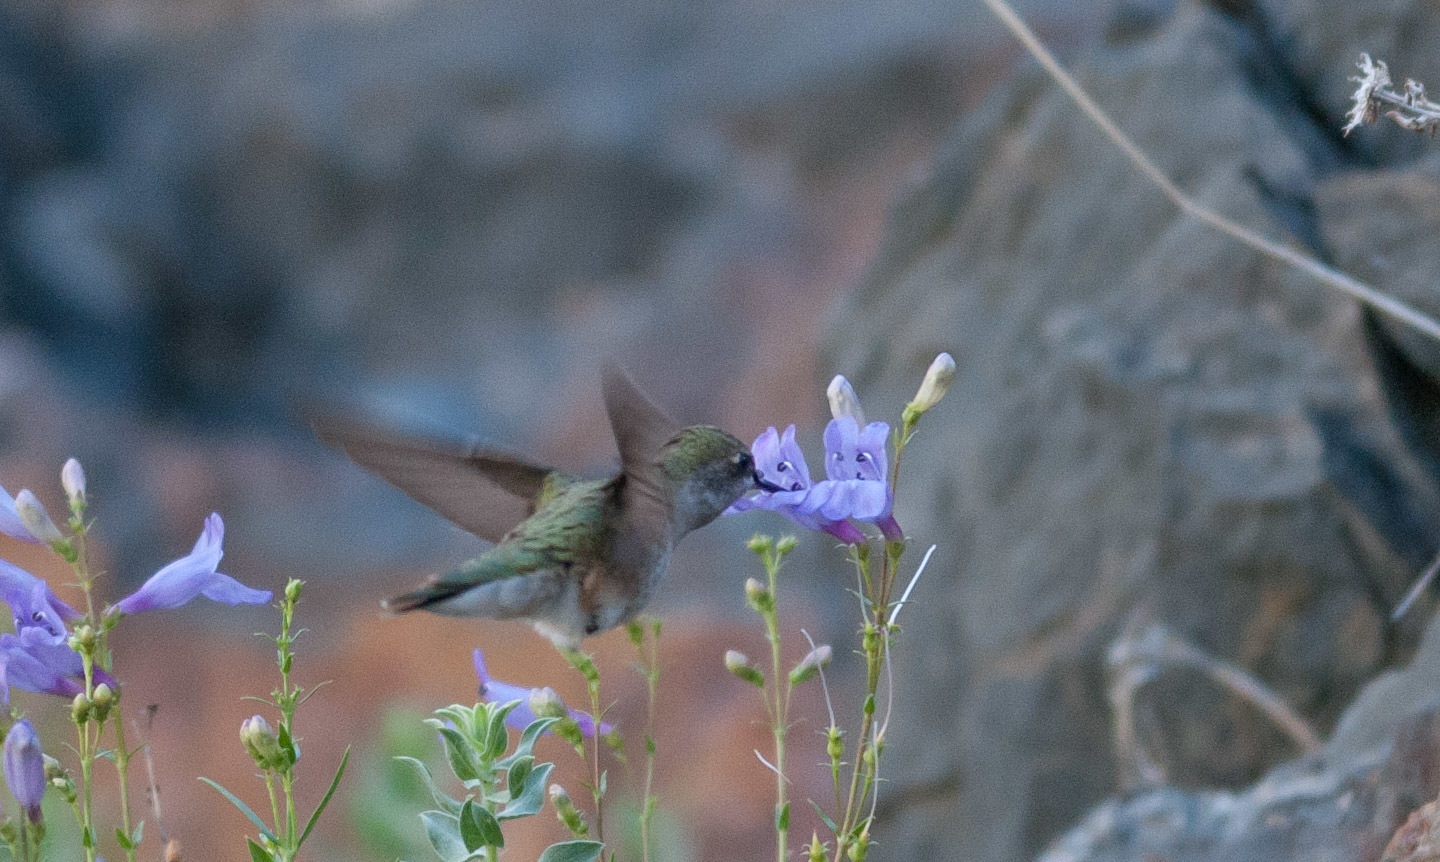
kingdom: Animalia
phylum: Chordata
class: Aves
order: Apodiformes
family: Trochilidae
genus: Selasphorus
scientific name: Selasphorus platycercus
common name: Broad-tailed hummingbird
